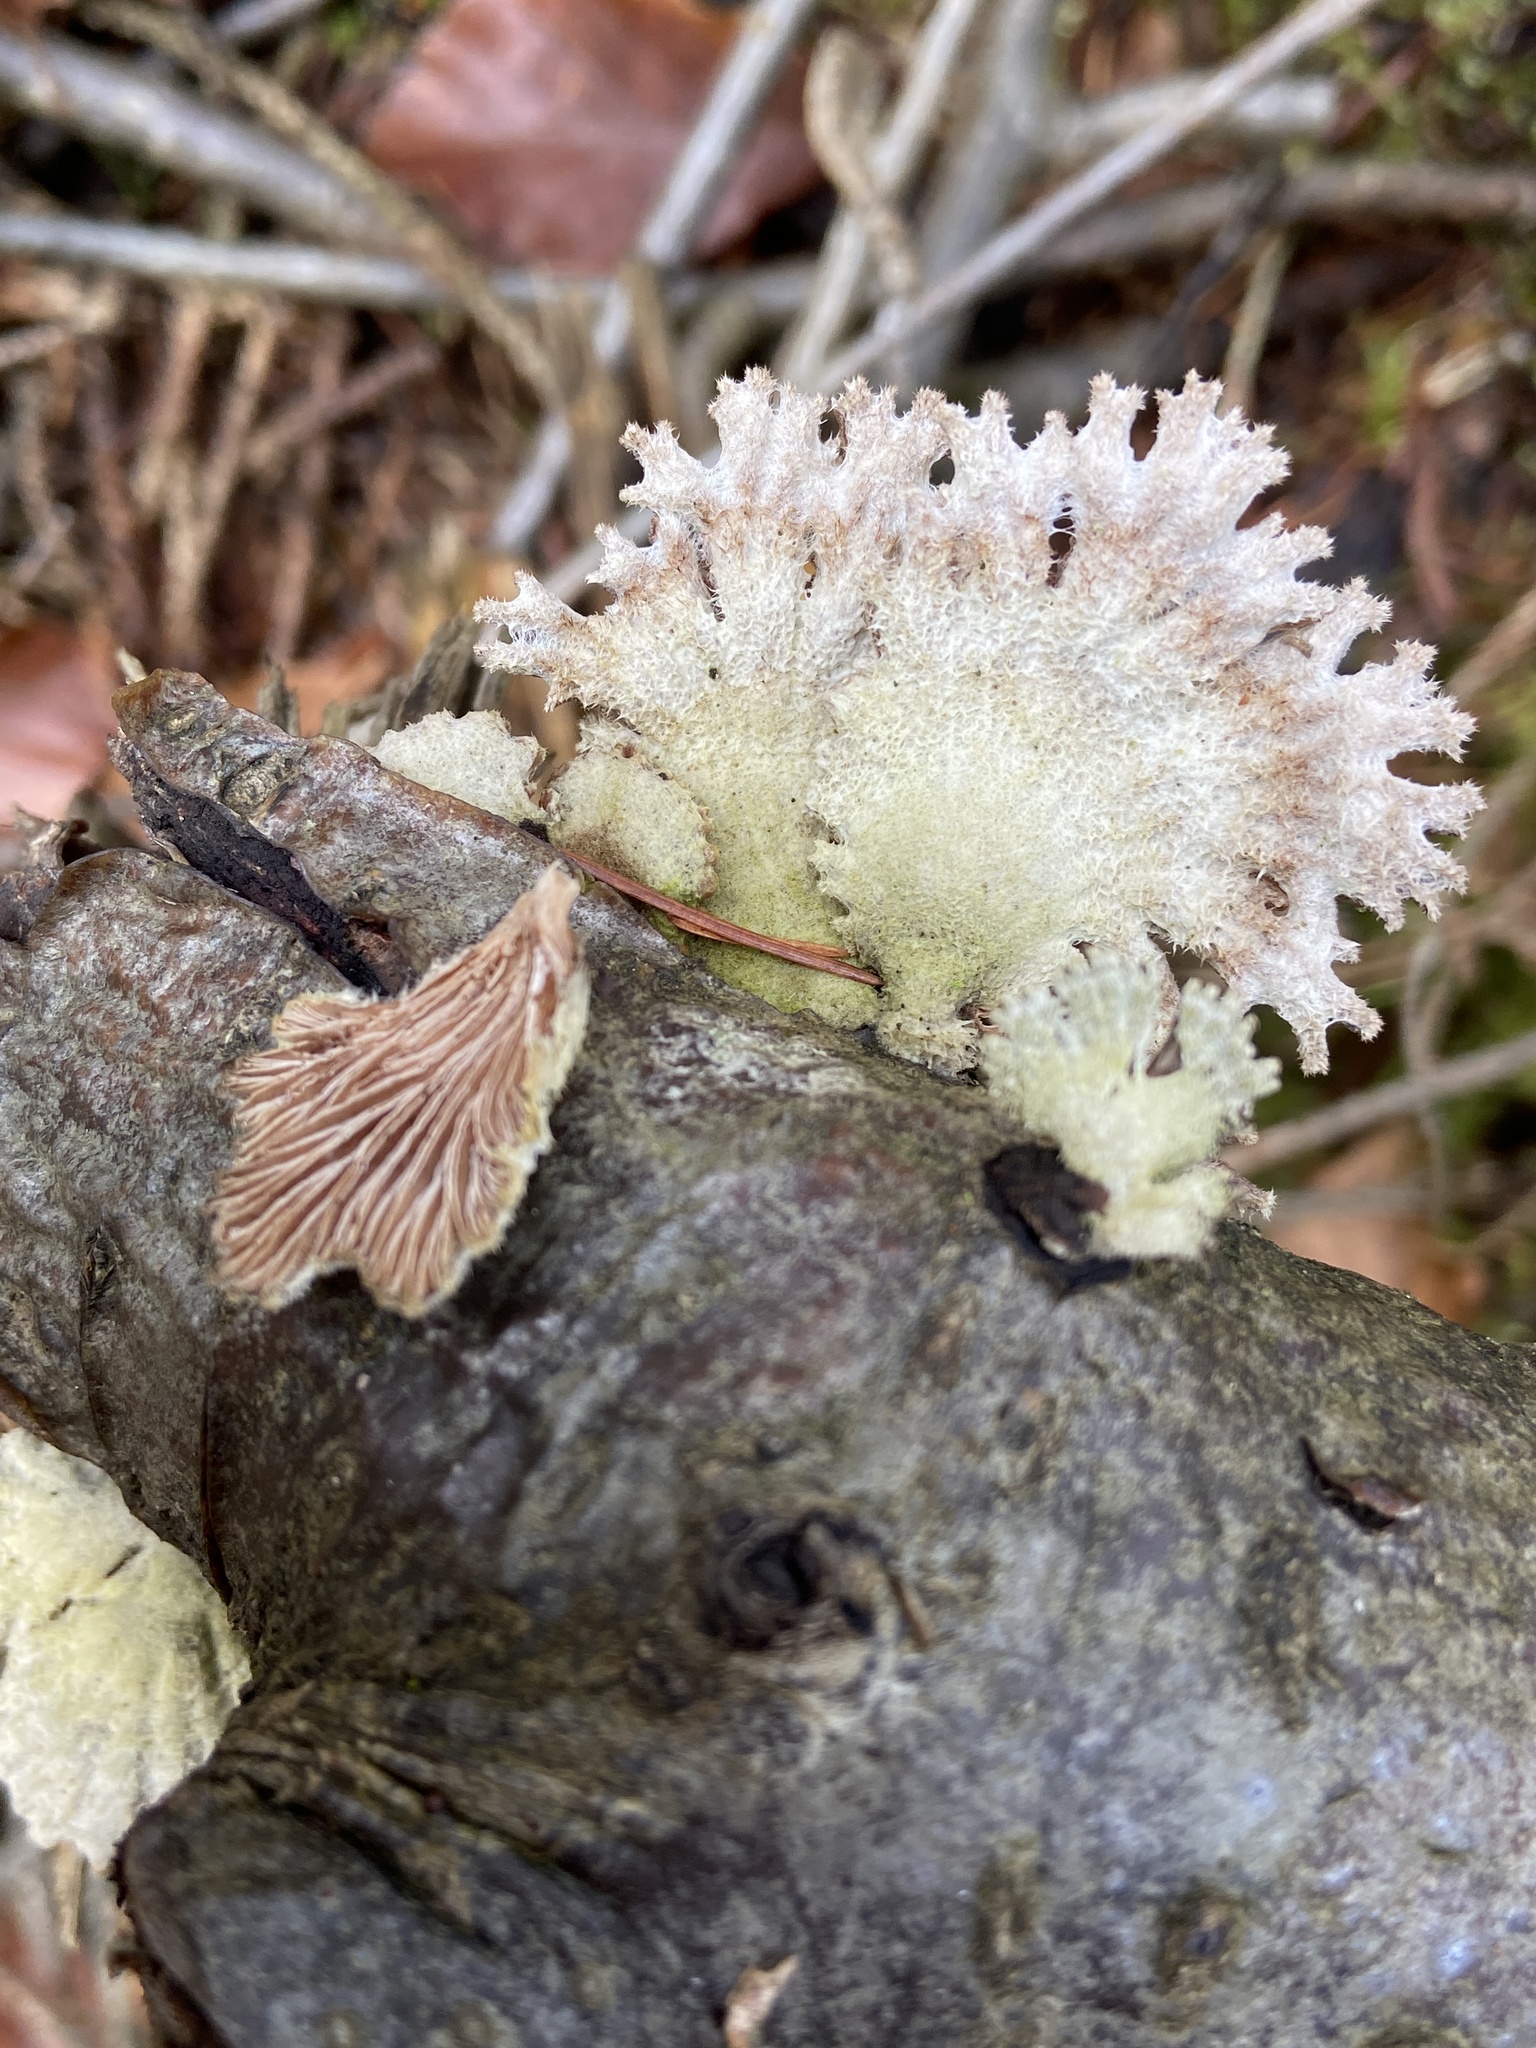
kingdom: Fungi
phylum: Basidiomycota
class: Agaricomycetes
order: Agaricales
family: Schizophyllaceae
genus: Schizophyllum
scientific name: Schizophyllum commune
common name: Common porecrust
